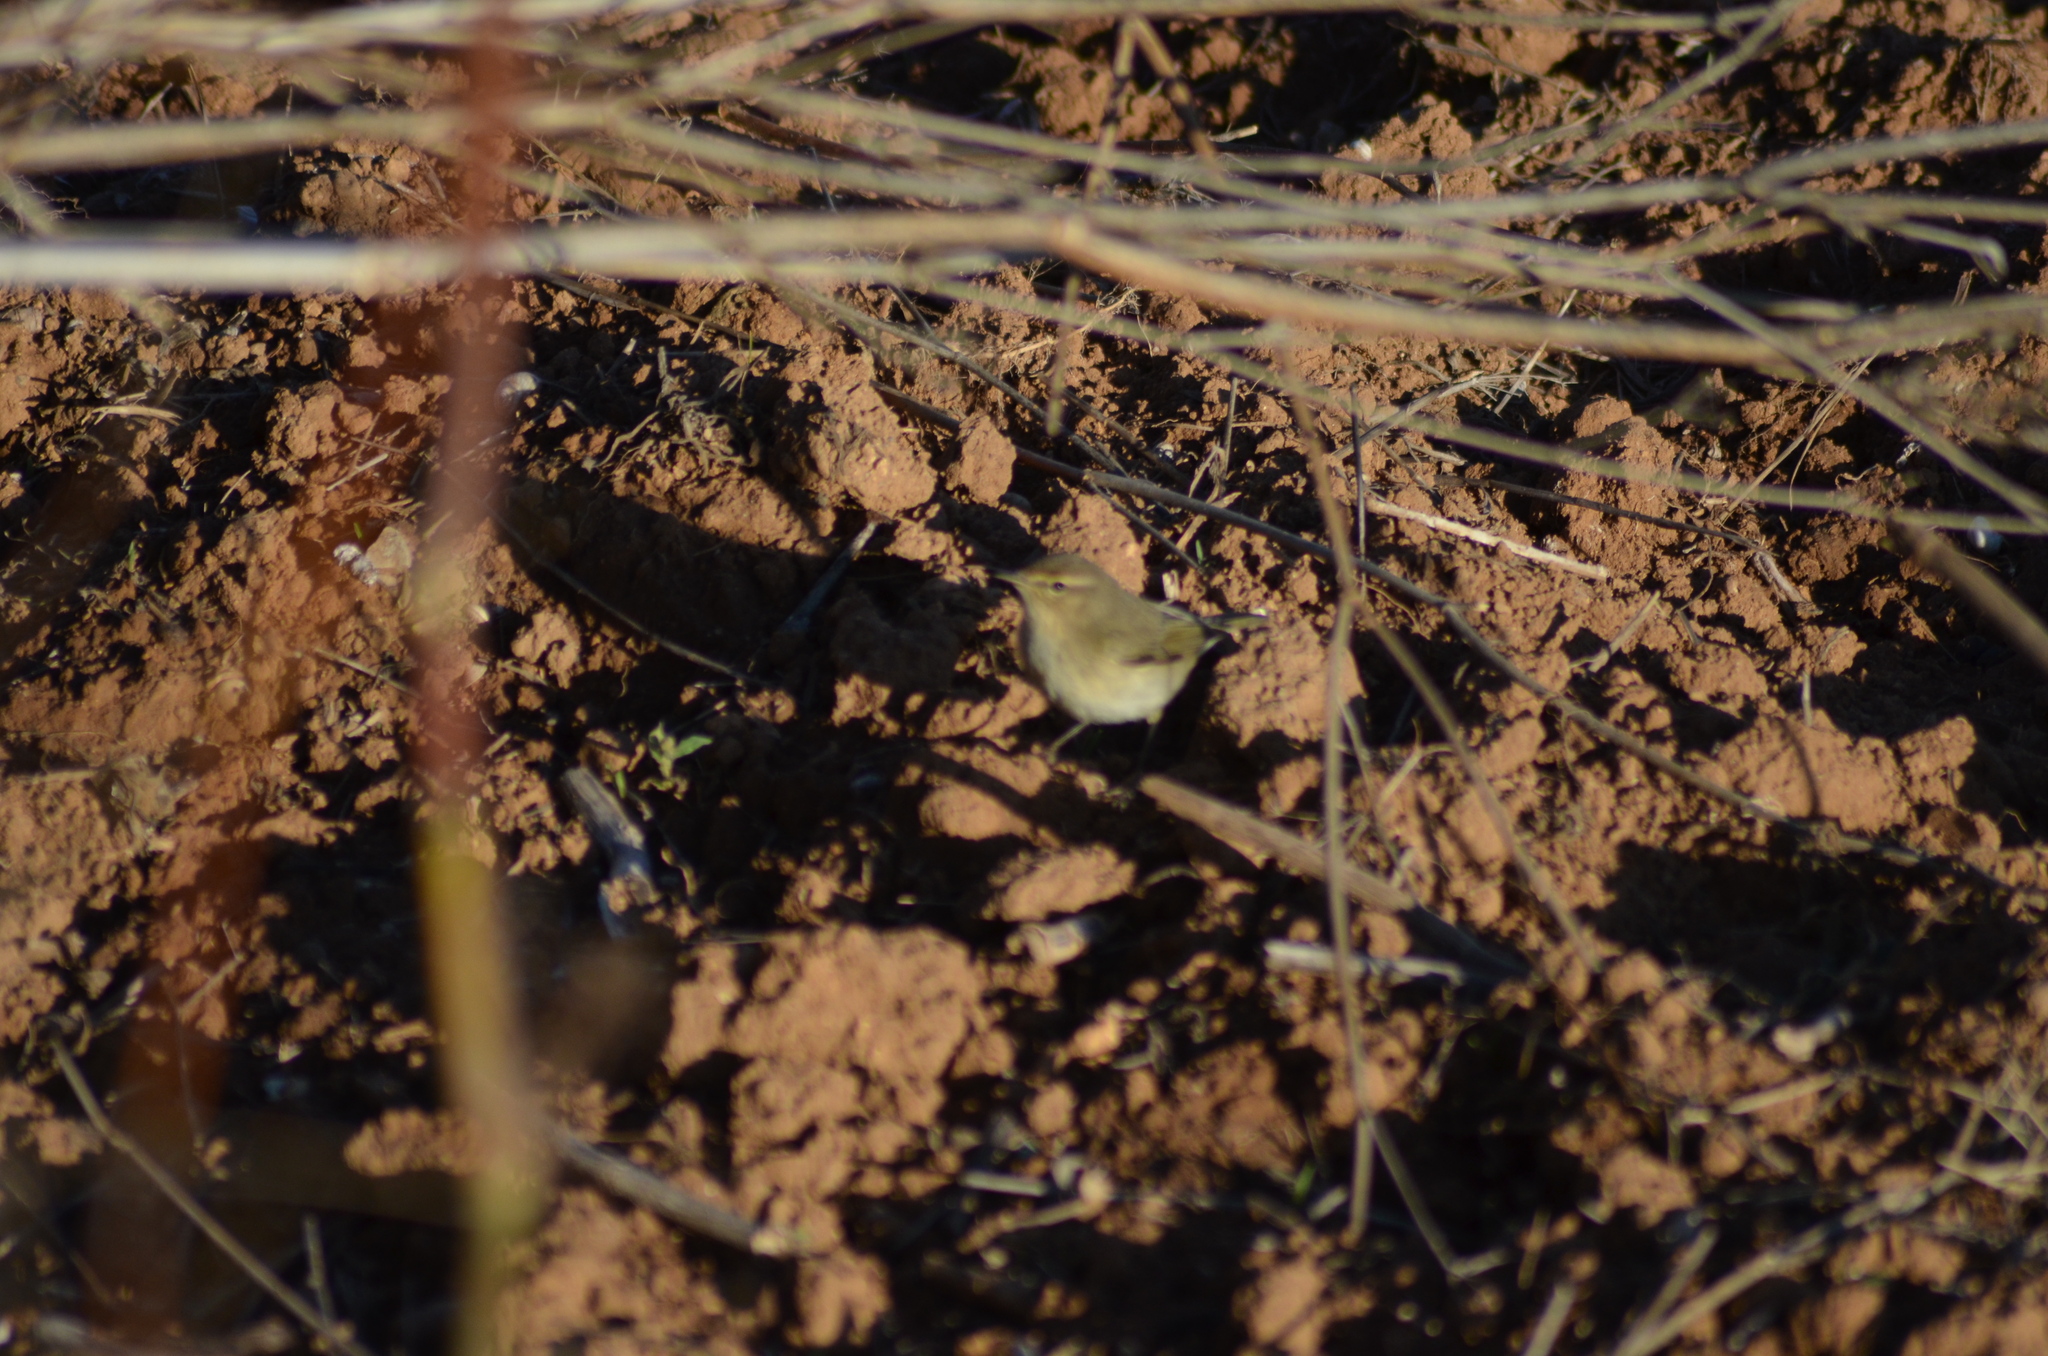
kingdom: Animalia
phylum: Chordata
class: Aves
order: Passeriformes
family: Phylloscopidae
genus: Phylloscopus
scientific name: Phylloscopus collybita
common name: Common chiffchaff
